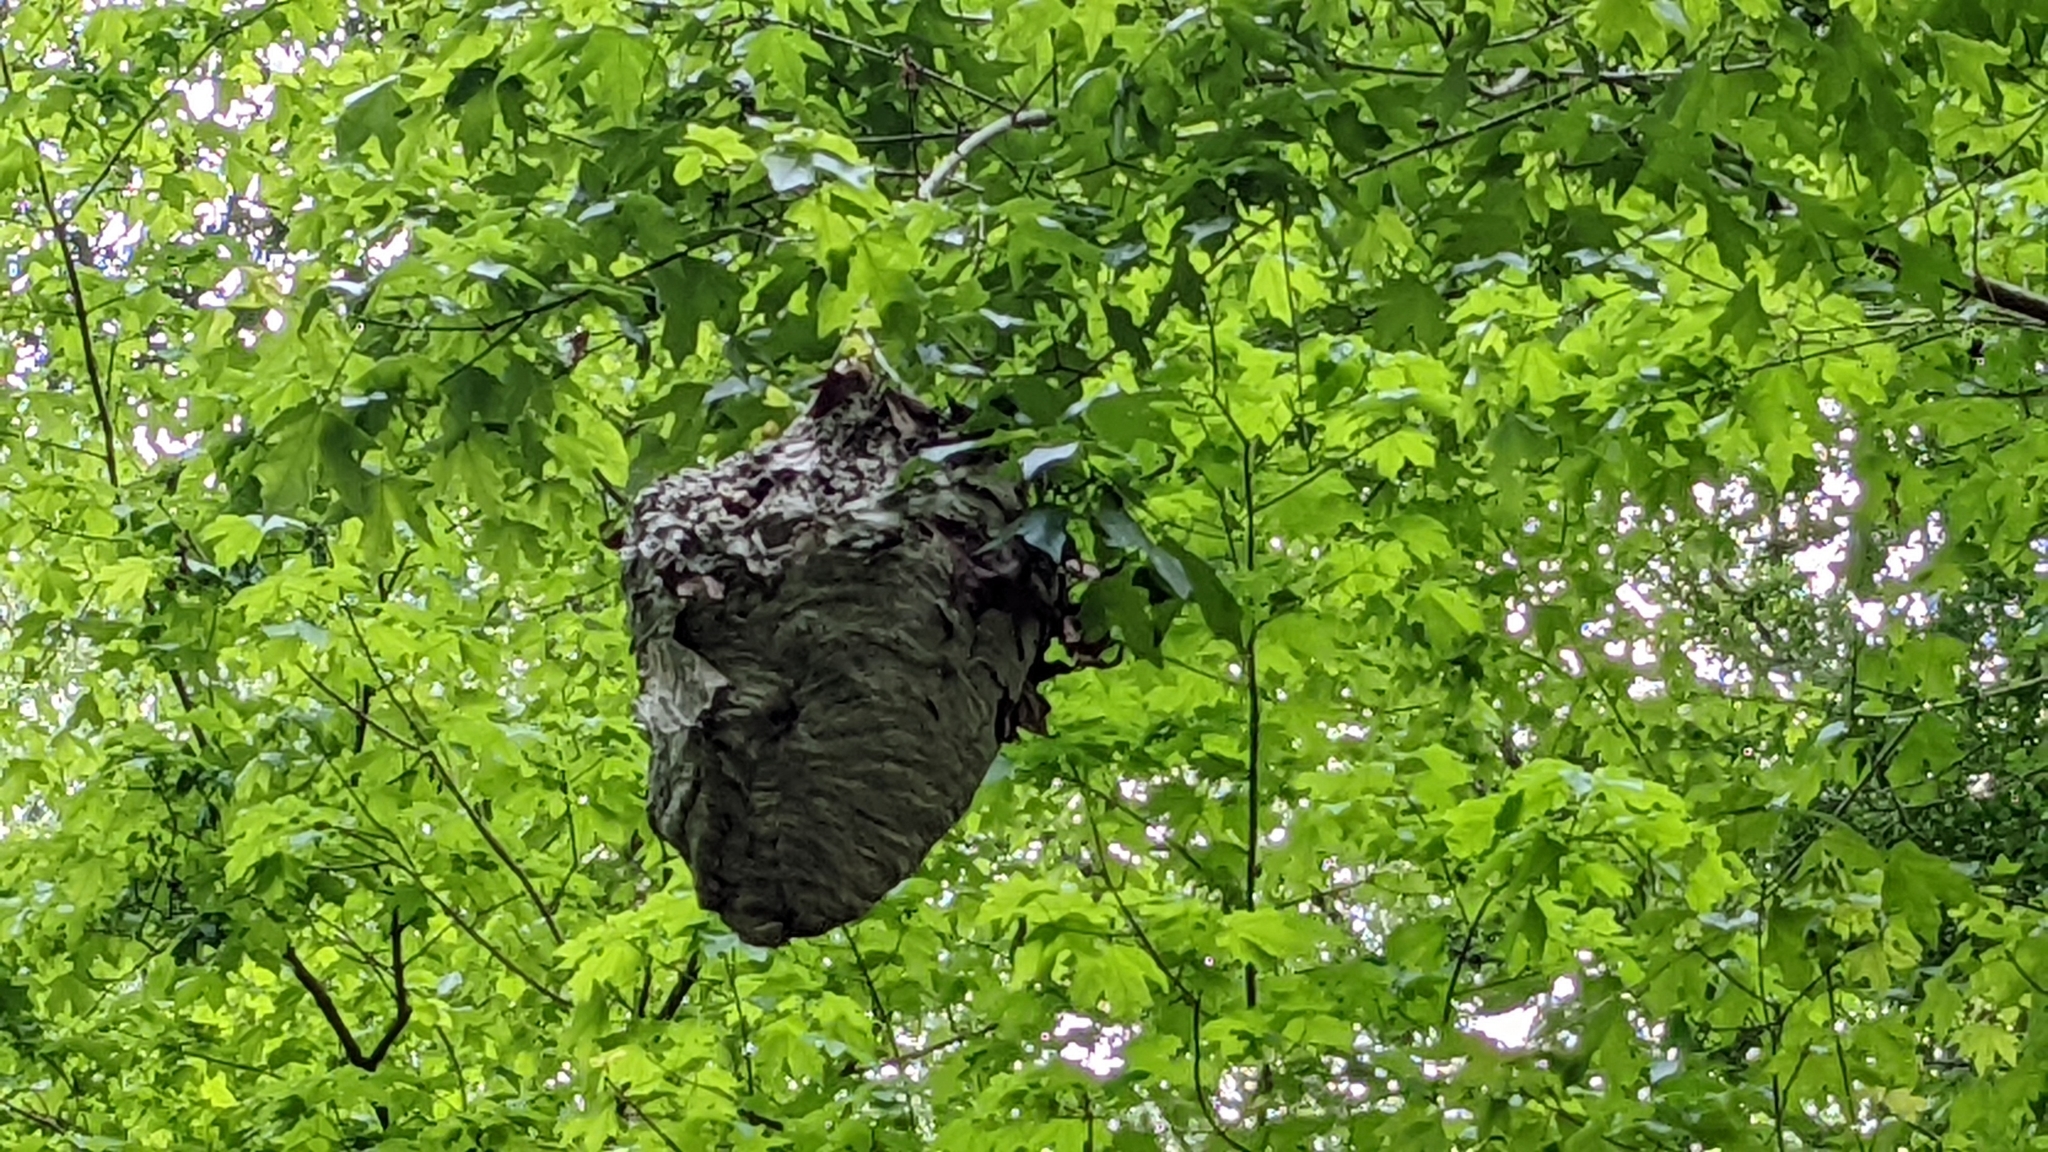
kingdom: Animalia
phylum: Arthropoda
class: Insecta
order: Hymenoptera
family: Vespidae
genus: Dolichovespula
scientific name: Dolichovespula maculata
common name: Bald-faced hornet
